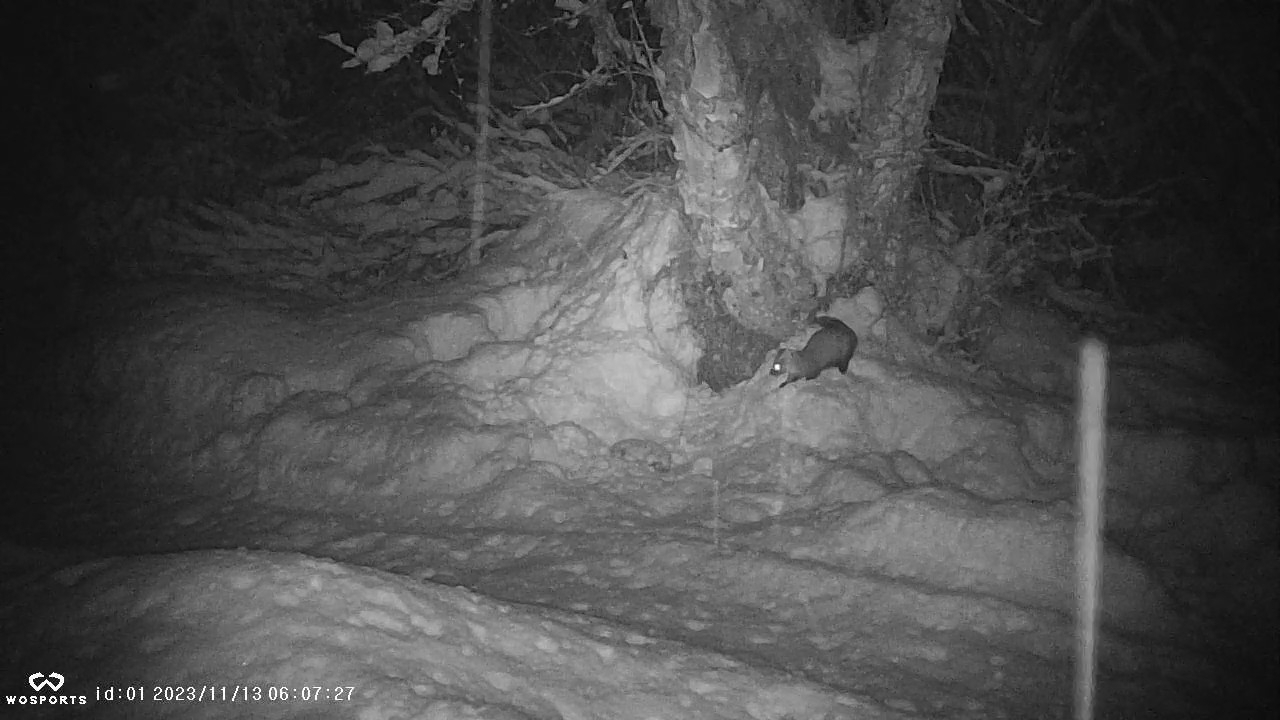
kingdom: Animalia
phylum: Chordata
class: Mammalia
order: Carnivora
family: Mustelidae
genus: Martes
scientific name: Martes americana
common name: American marten
